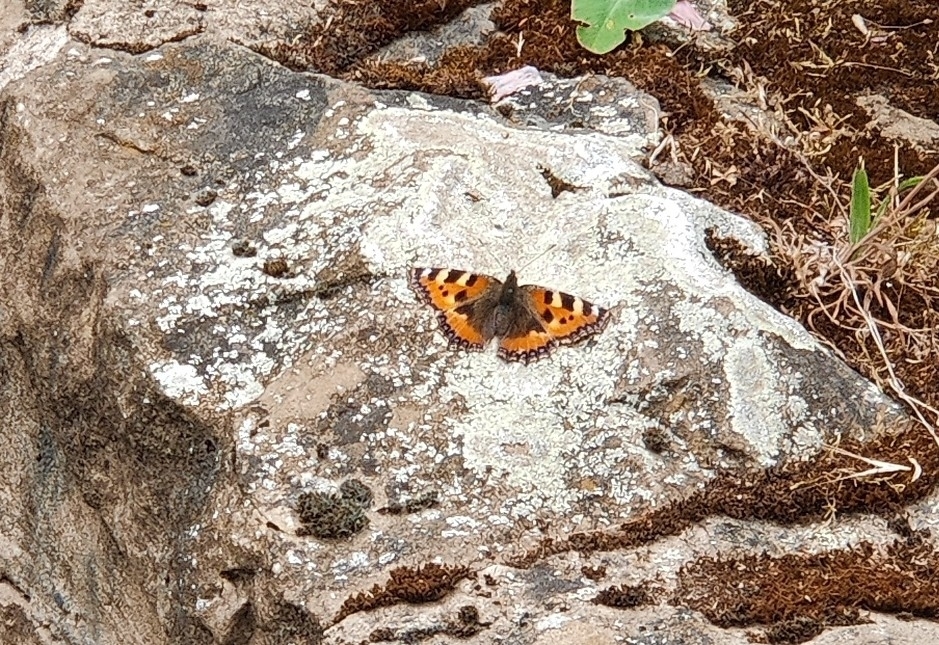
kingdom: Animalia
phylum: Arthropoda
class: Insecta
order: Lepidoptera
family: Nymphalidae
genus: Aglais
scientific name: Aglais urticae
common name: Small tortoiseshell
